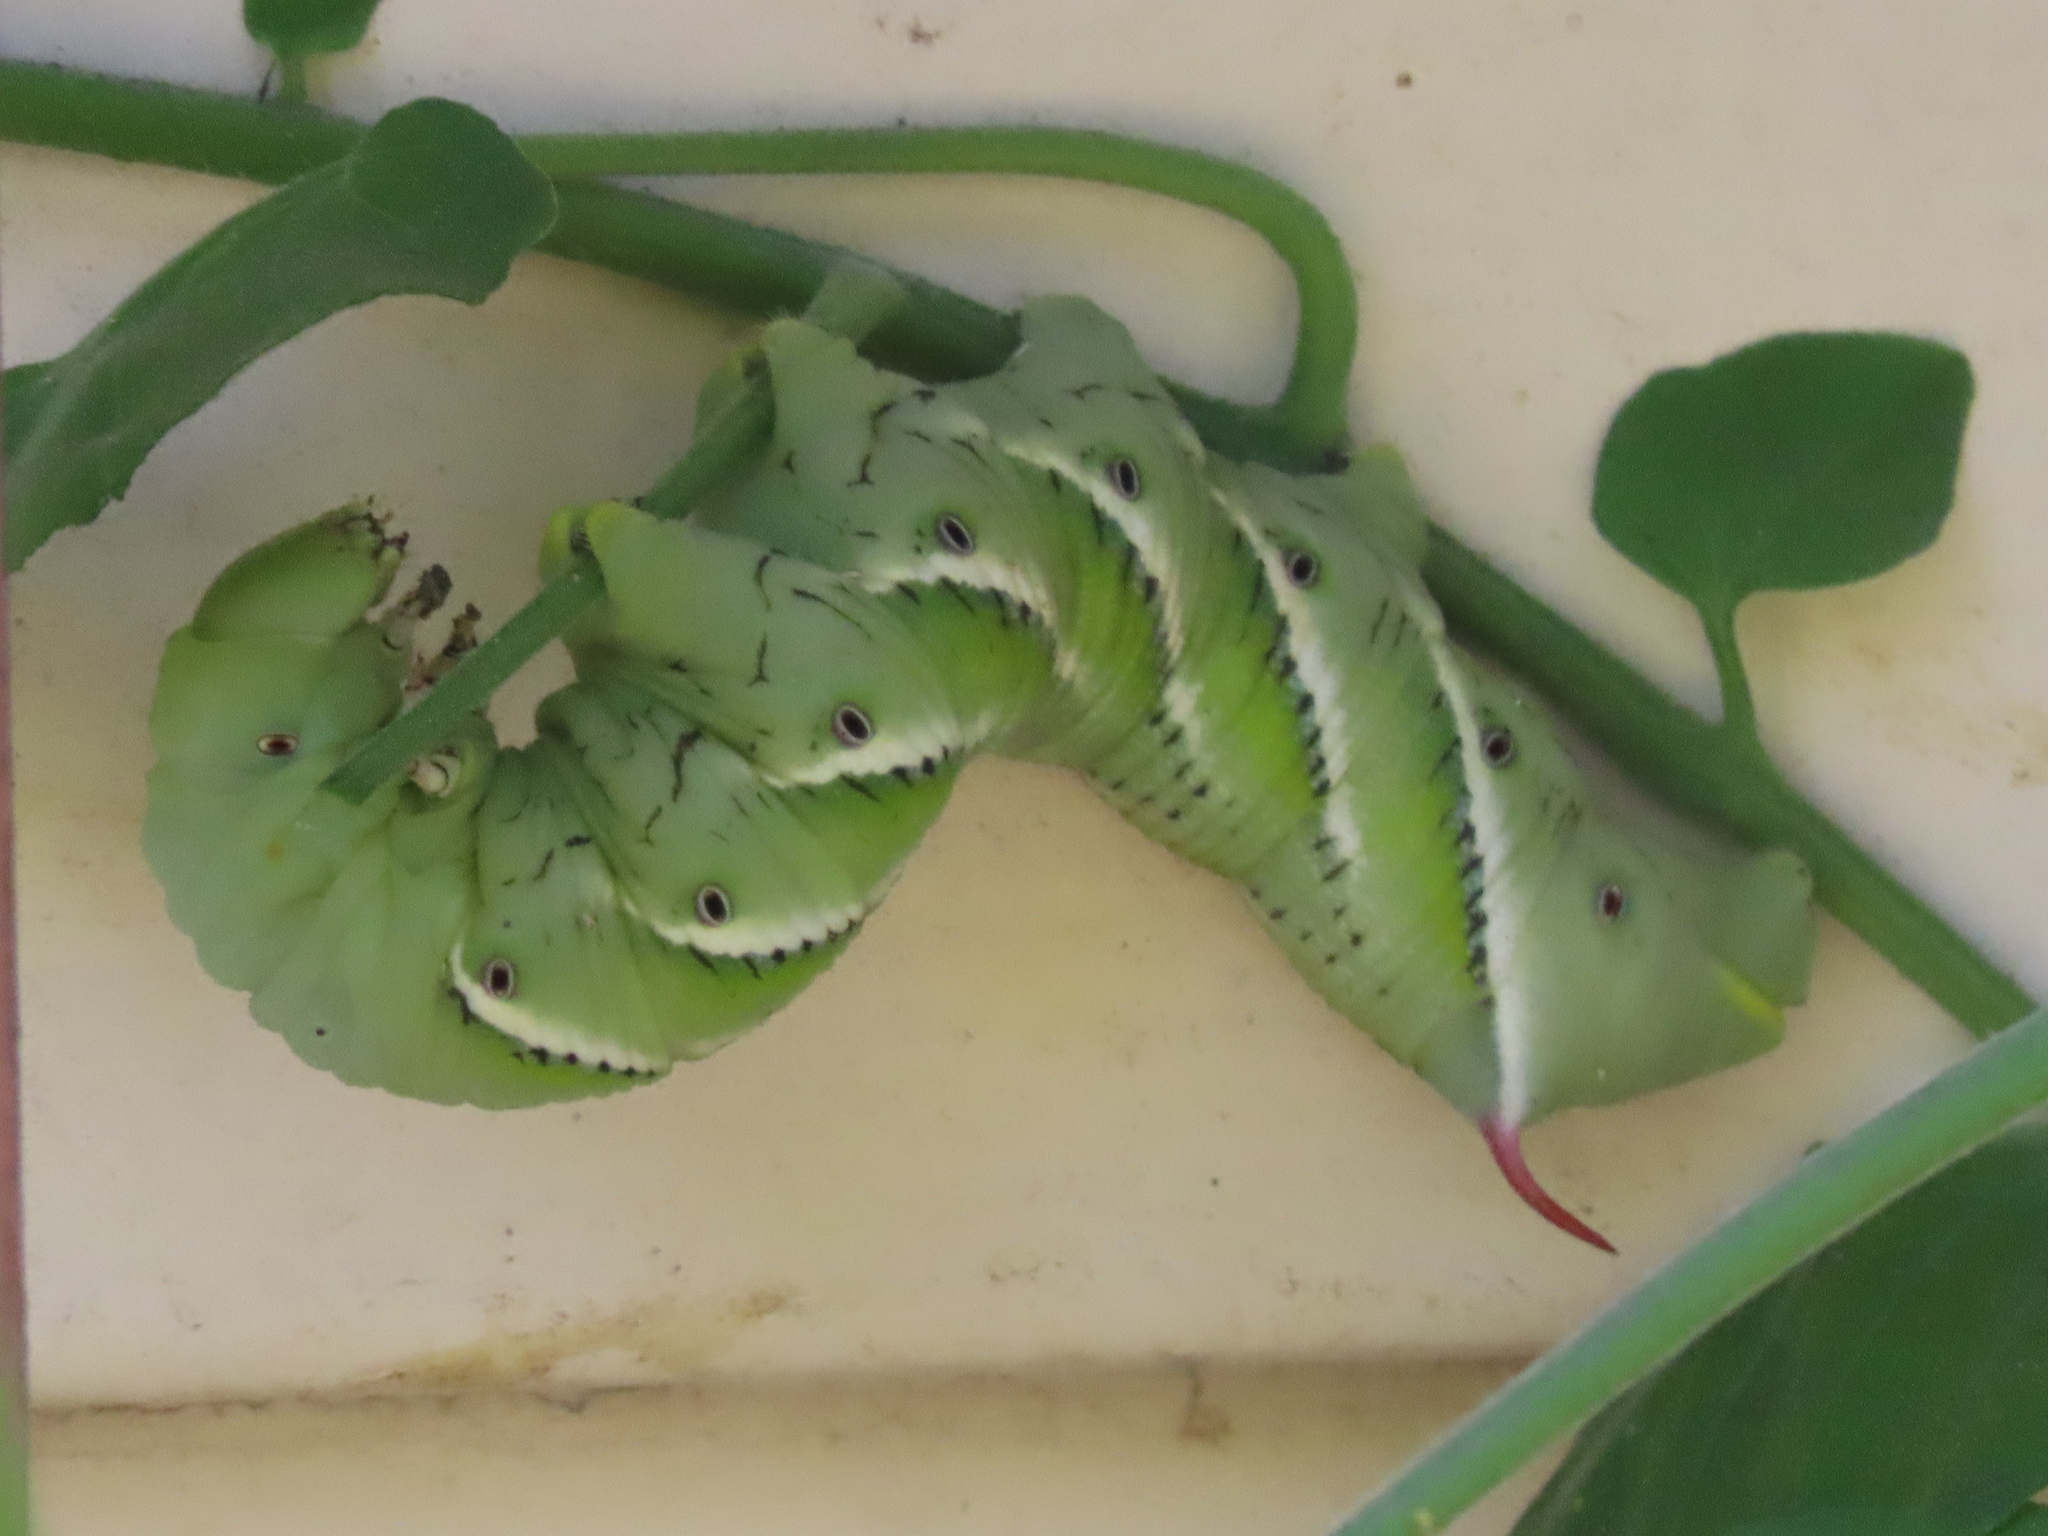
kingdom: Animalia
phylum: Arthropoda
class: Insecta
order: Lepidoptera
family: Sphingidae
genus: Manduca
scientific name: Manduca sexta
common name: Carolina sphinx
